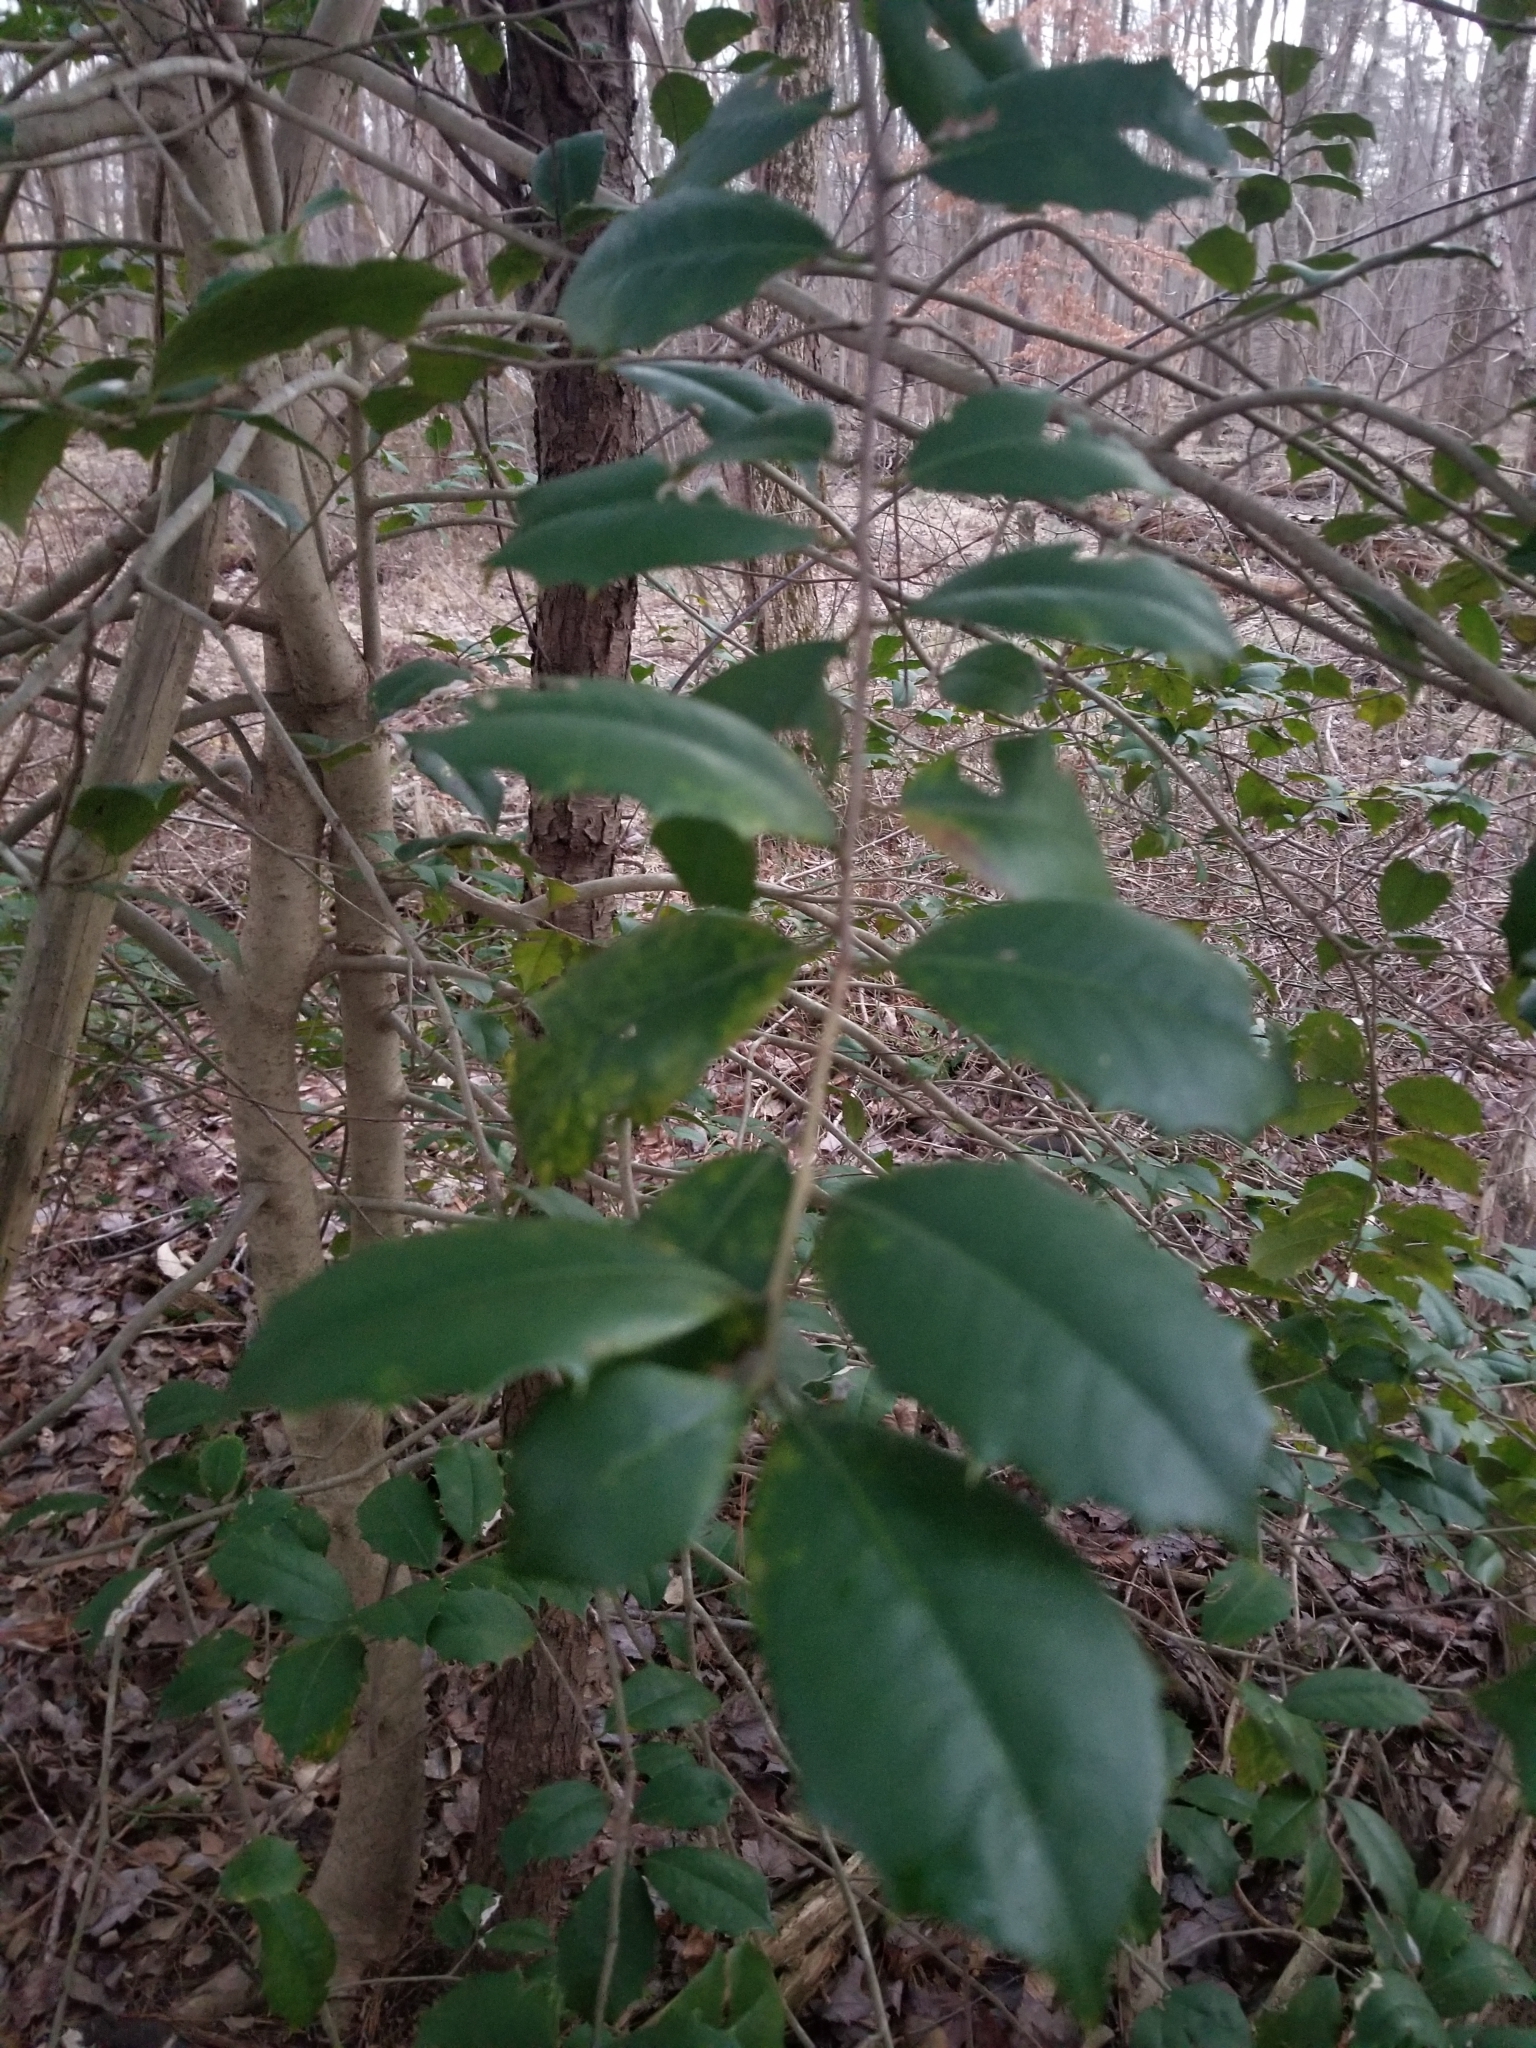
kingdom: Plantae
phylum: Tracheophyta
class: Magnoliopsida
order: Aquifoliales
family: Aquifoliaceae
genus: Ilex
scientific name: Ilex opaca
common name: American holly
